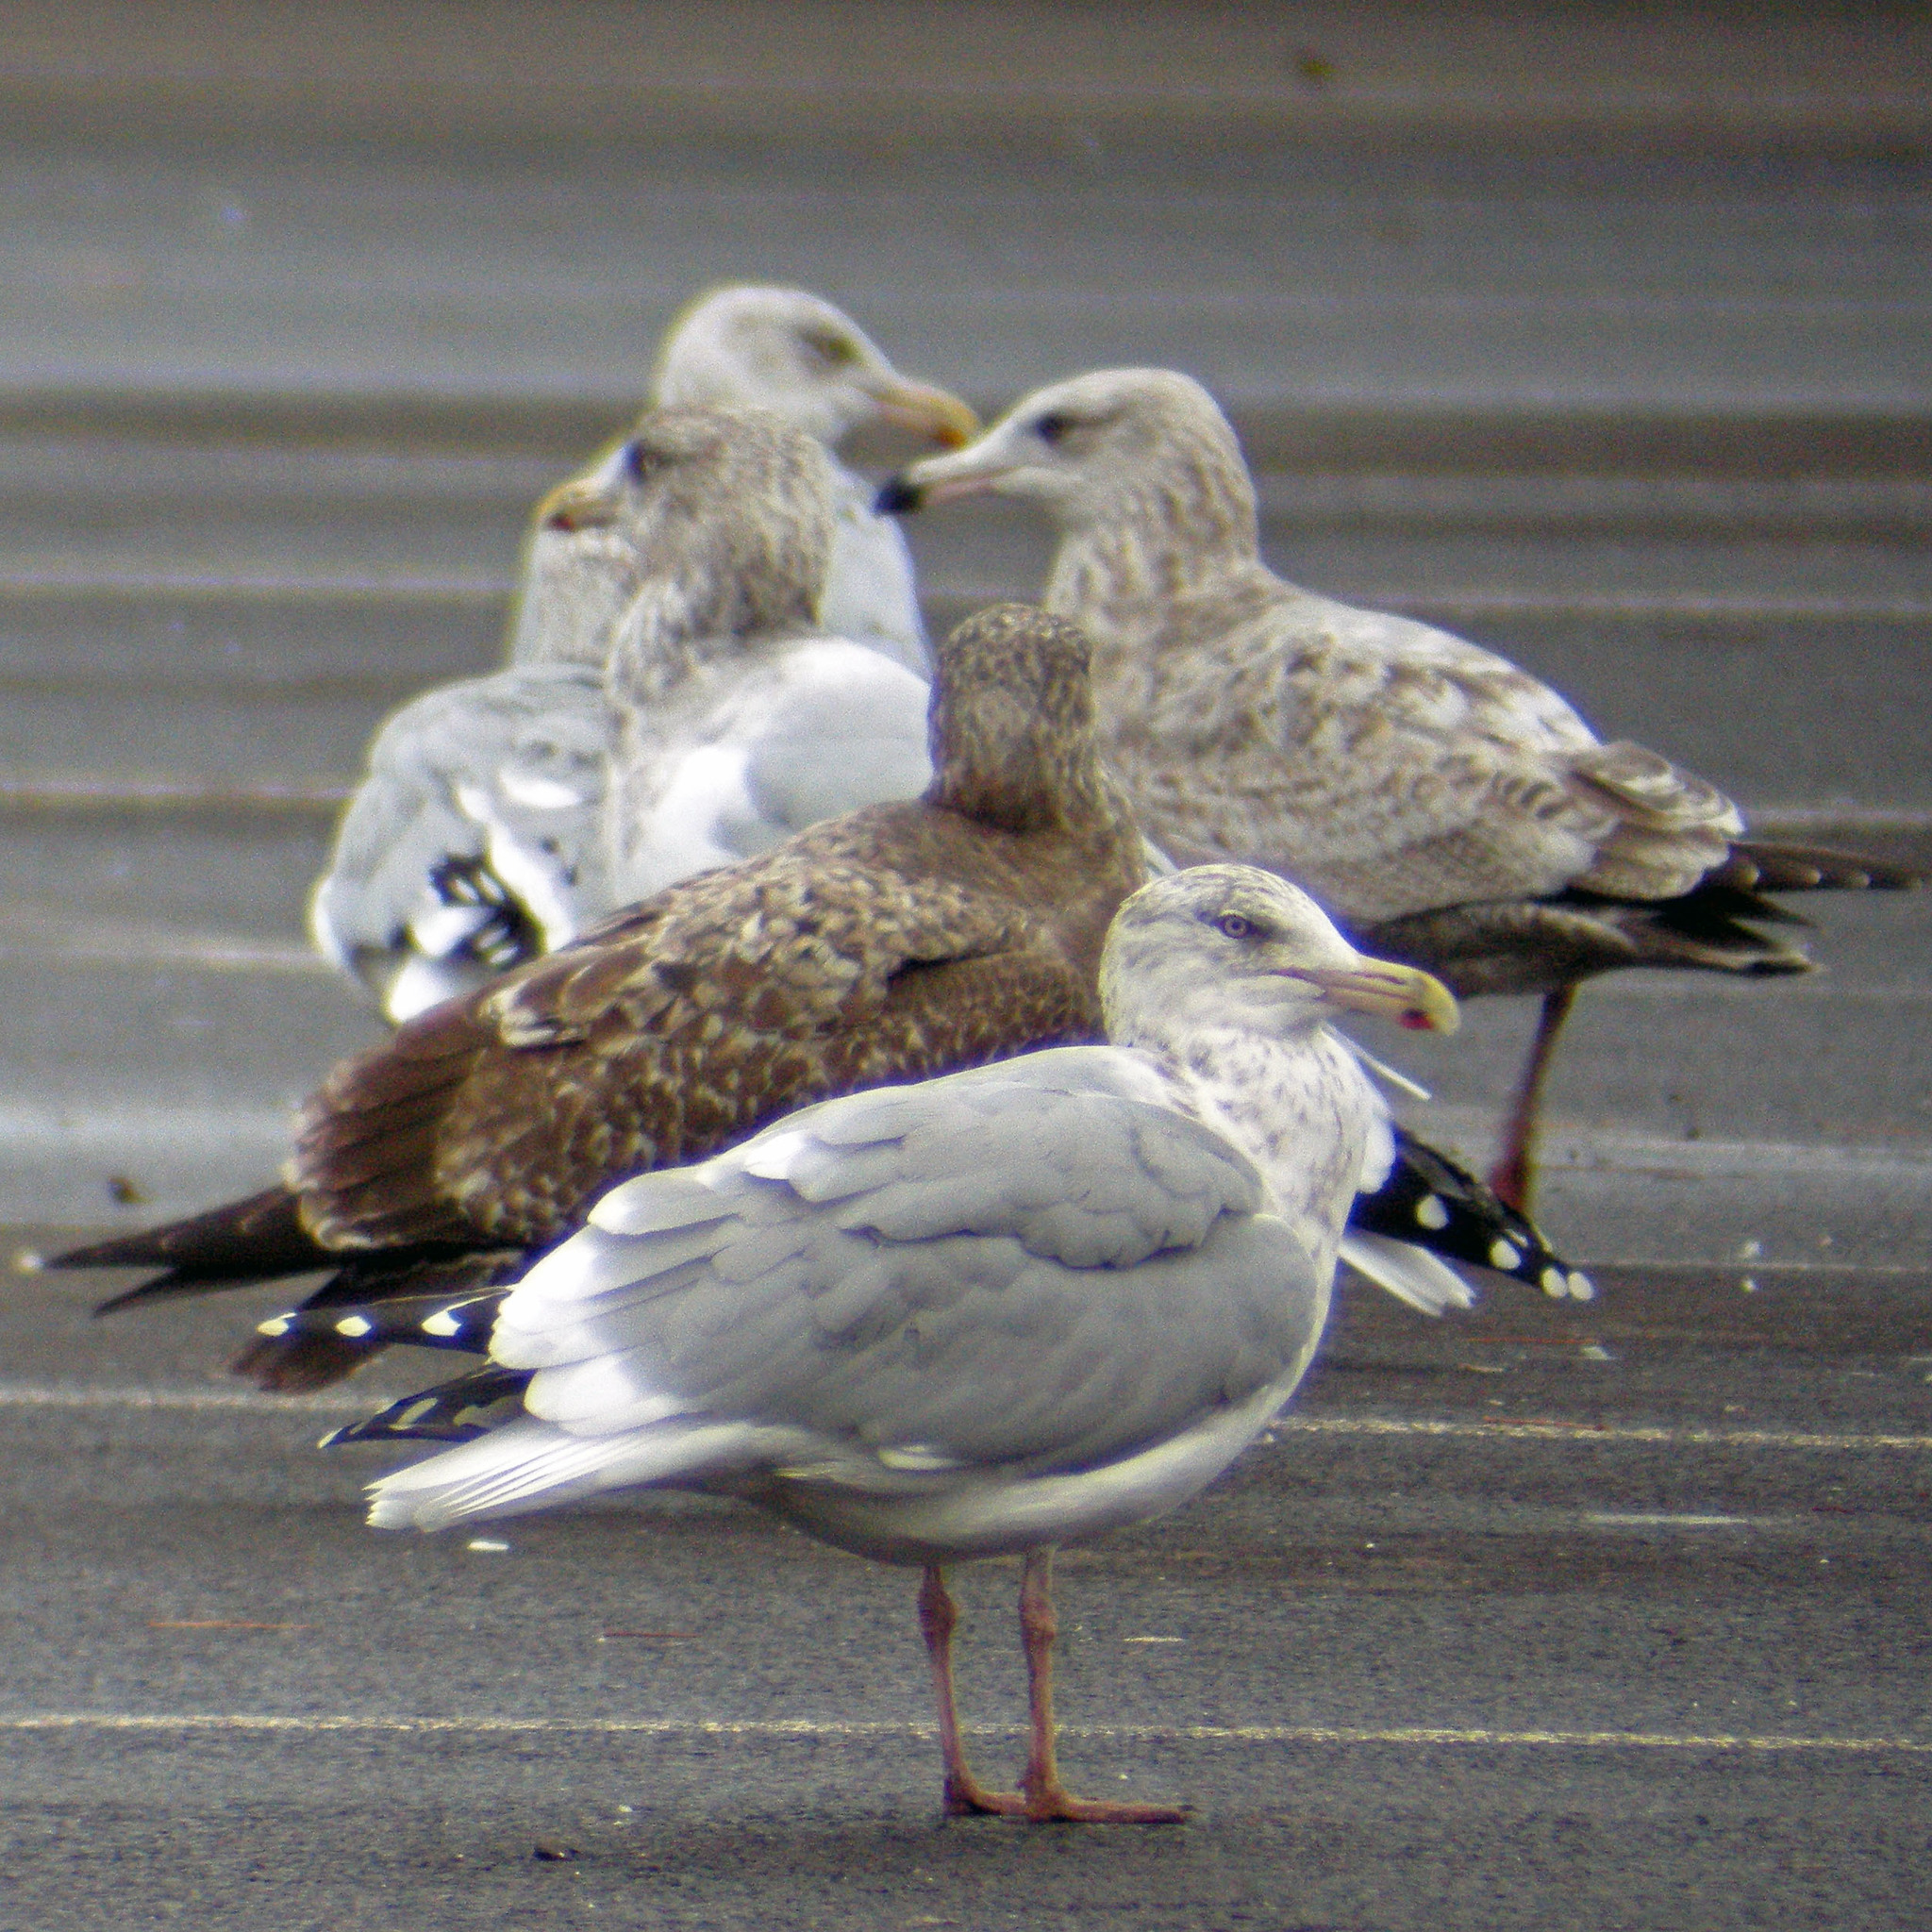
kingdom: Animalia
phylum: Chordata
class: Aves
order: Charadriiformes
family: Laridae
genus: Larus
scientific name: Larus argentatus
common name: Herring gull
